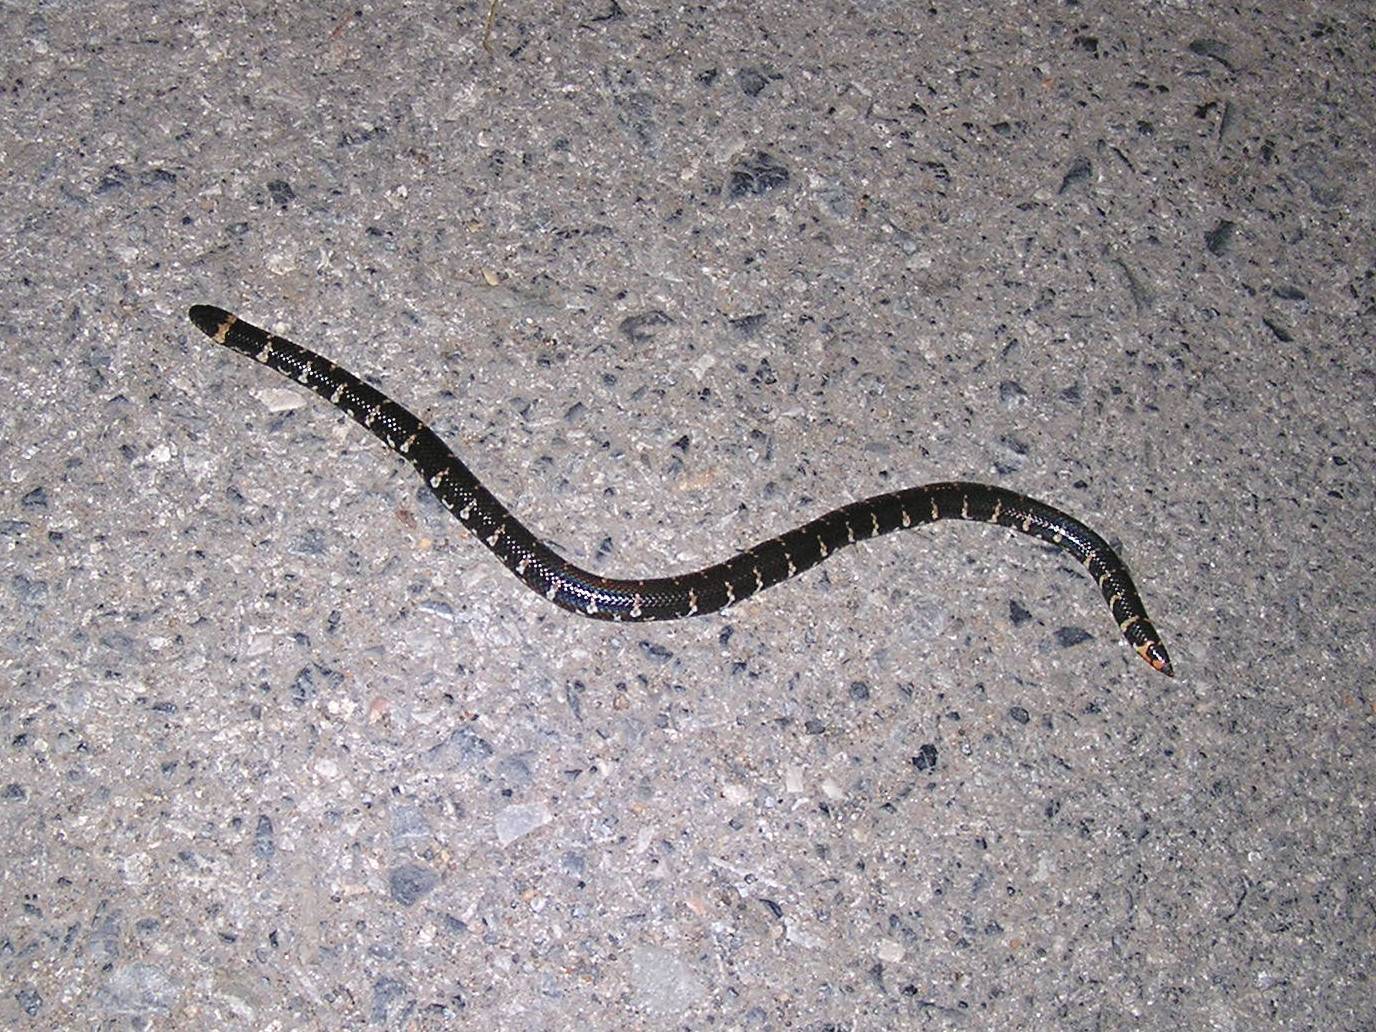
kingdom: Animalia
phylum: Chordata
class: Squamata
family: Cylindrophiidae
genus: Cylindrophis
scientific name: Cylindrophis jodiae
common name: Jodi’s pipe-snake
